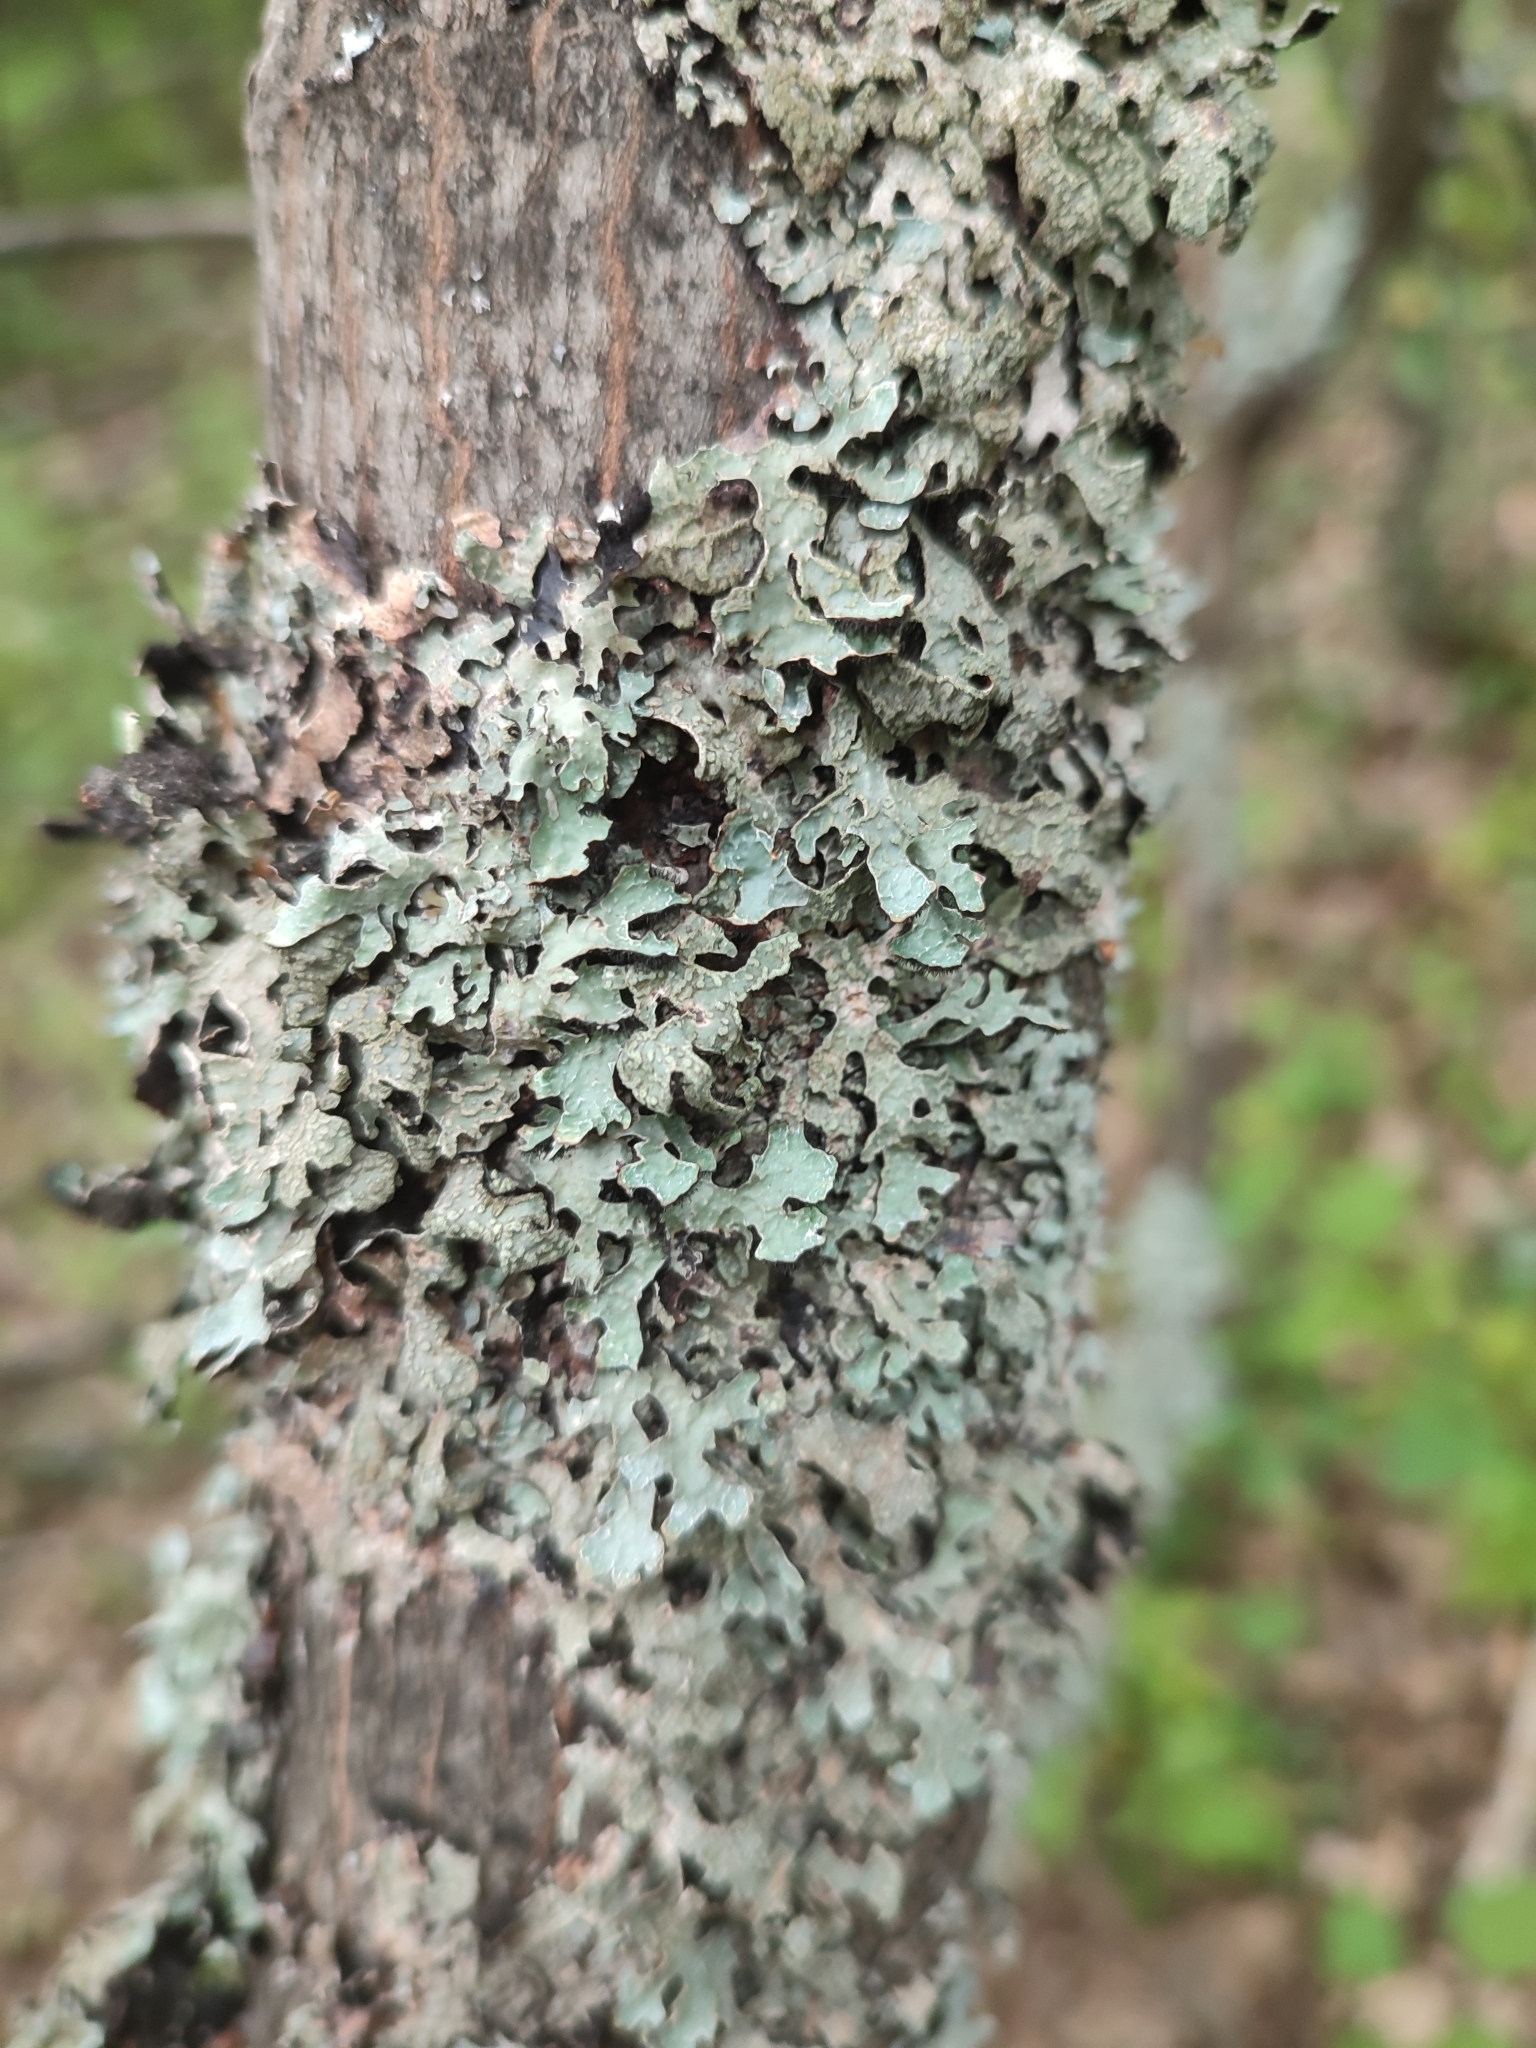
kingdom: Fungi
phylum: Ascomycota
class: Lecanoromycetes
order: Lecanorales
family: Parmeliaceae
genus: Parmelia
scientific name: Parmelia sulcata
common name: Netted shield lichen
